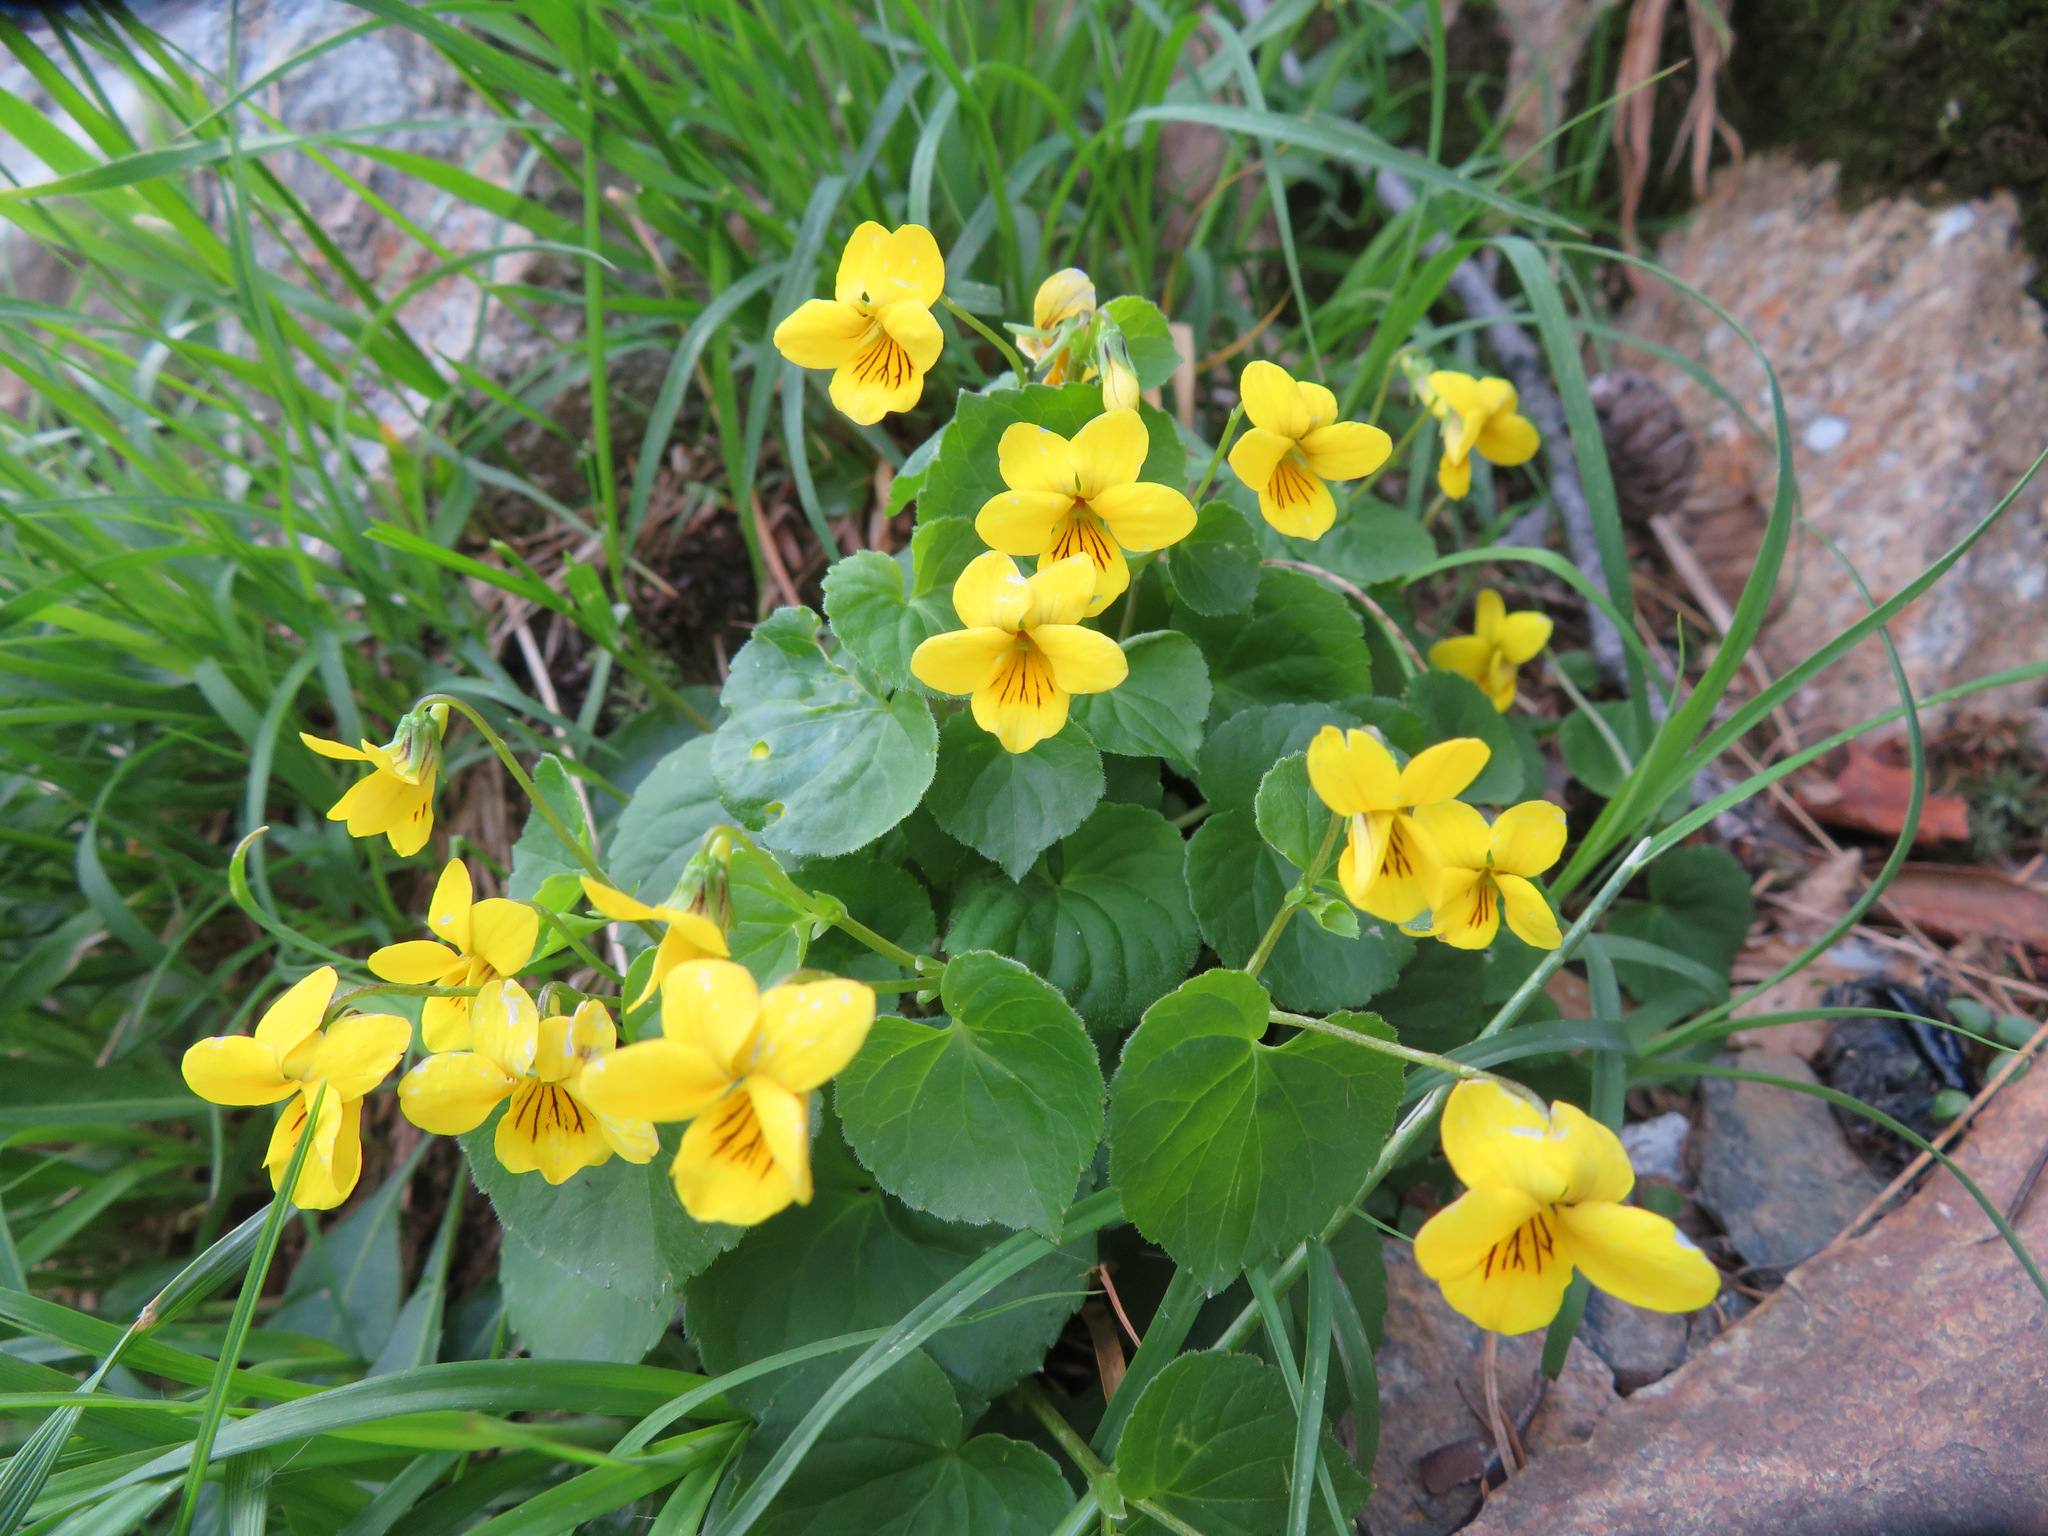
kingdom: Plantae
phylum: Tracheophyta
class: Magnoliopsida
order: Malpighiales
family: Violaceae
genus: Viola
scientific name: Viola biflora
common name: Alpine yellow violet
